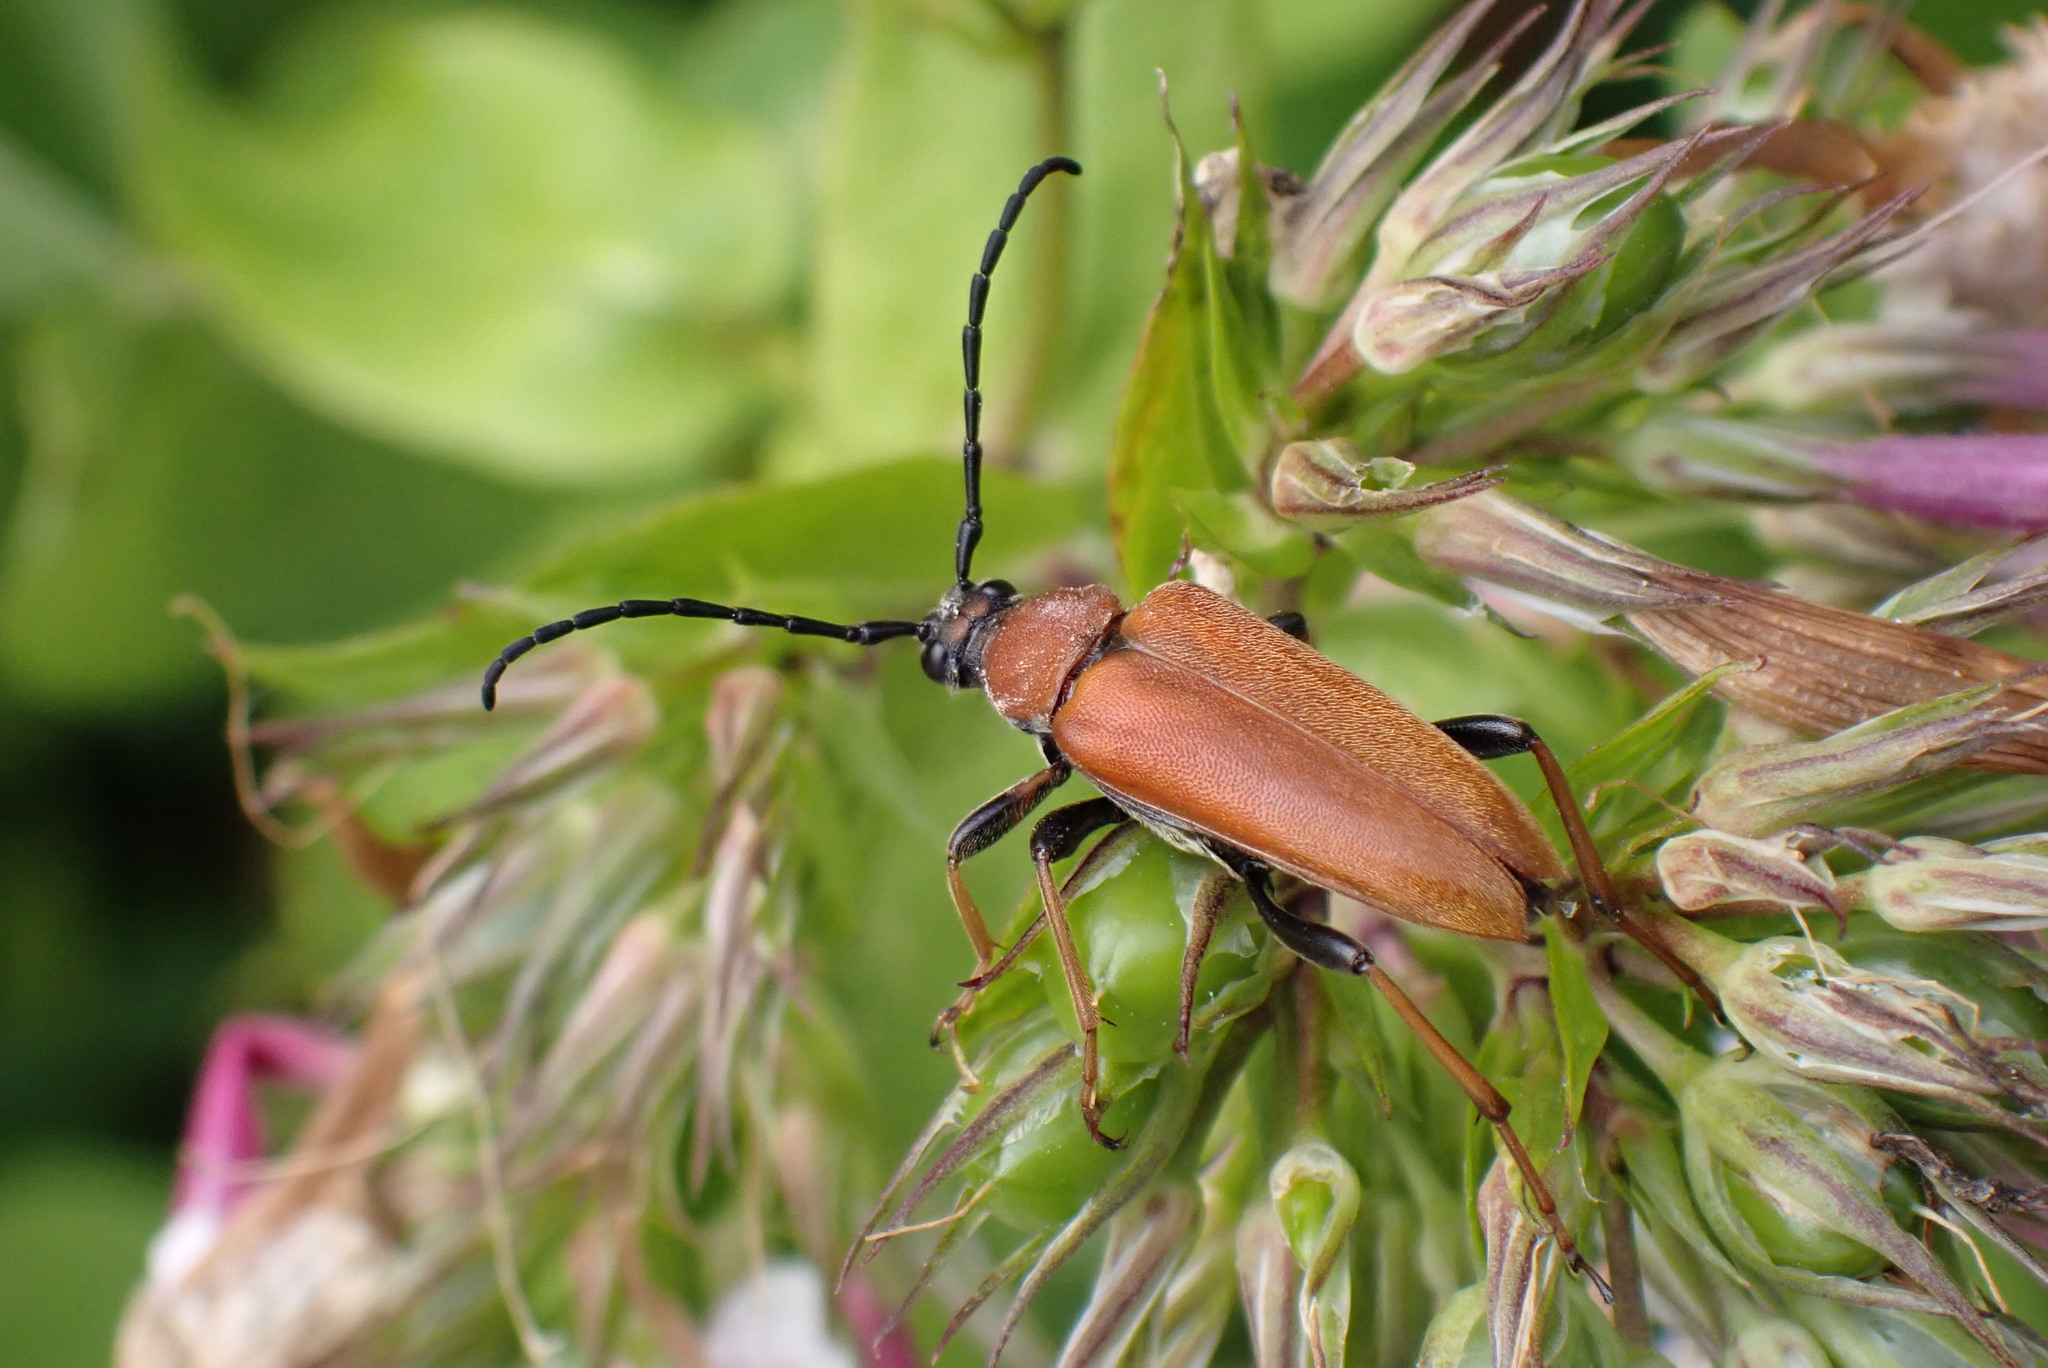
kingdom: Animalia
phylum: Arthropoda
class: Insecta
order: Coleoptera
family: Cerambycidae
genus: Stictoleptura
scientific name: Stictoleptura rubra
